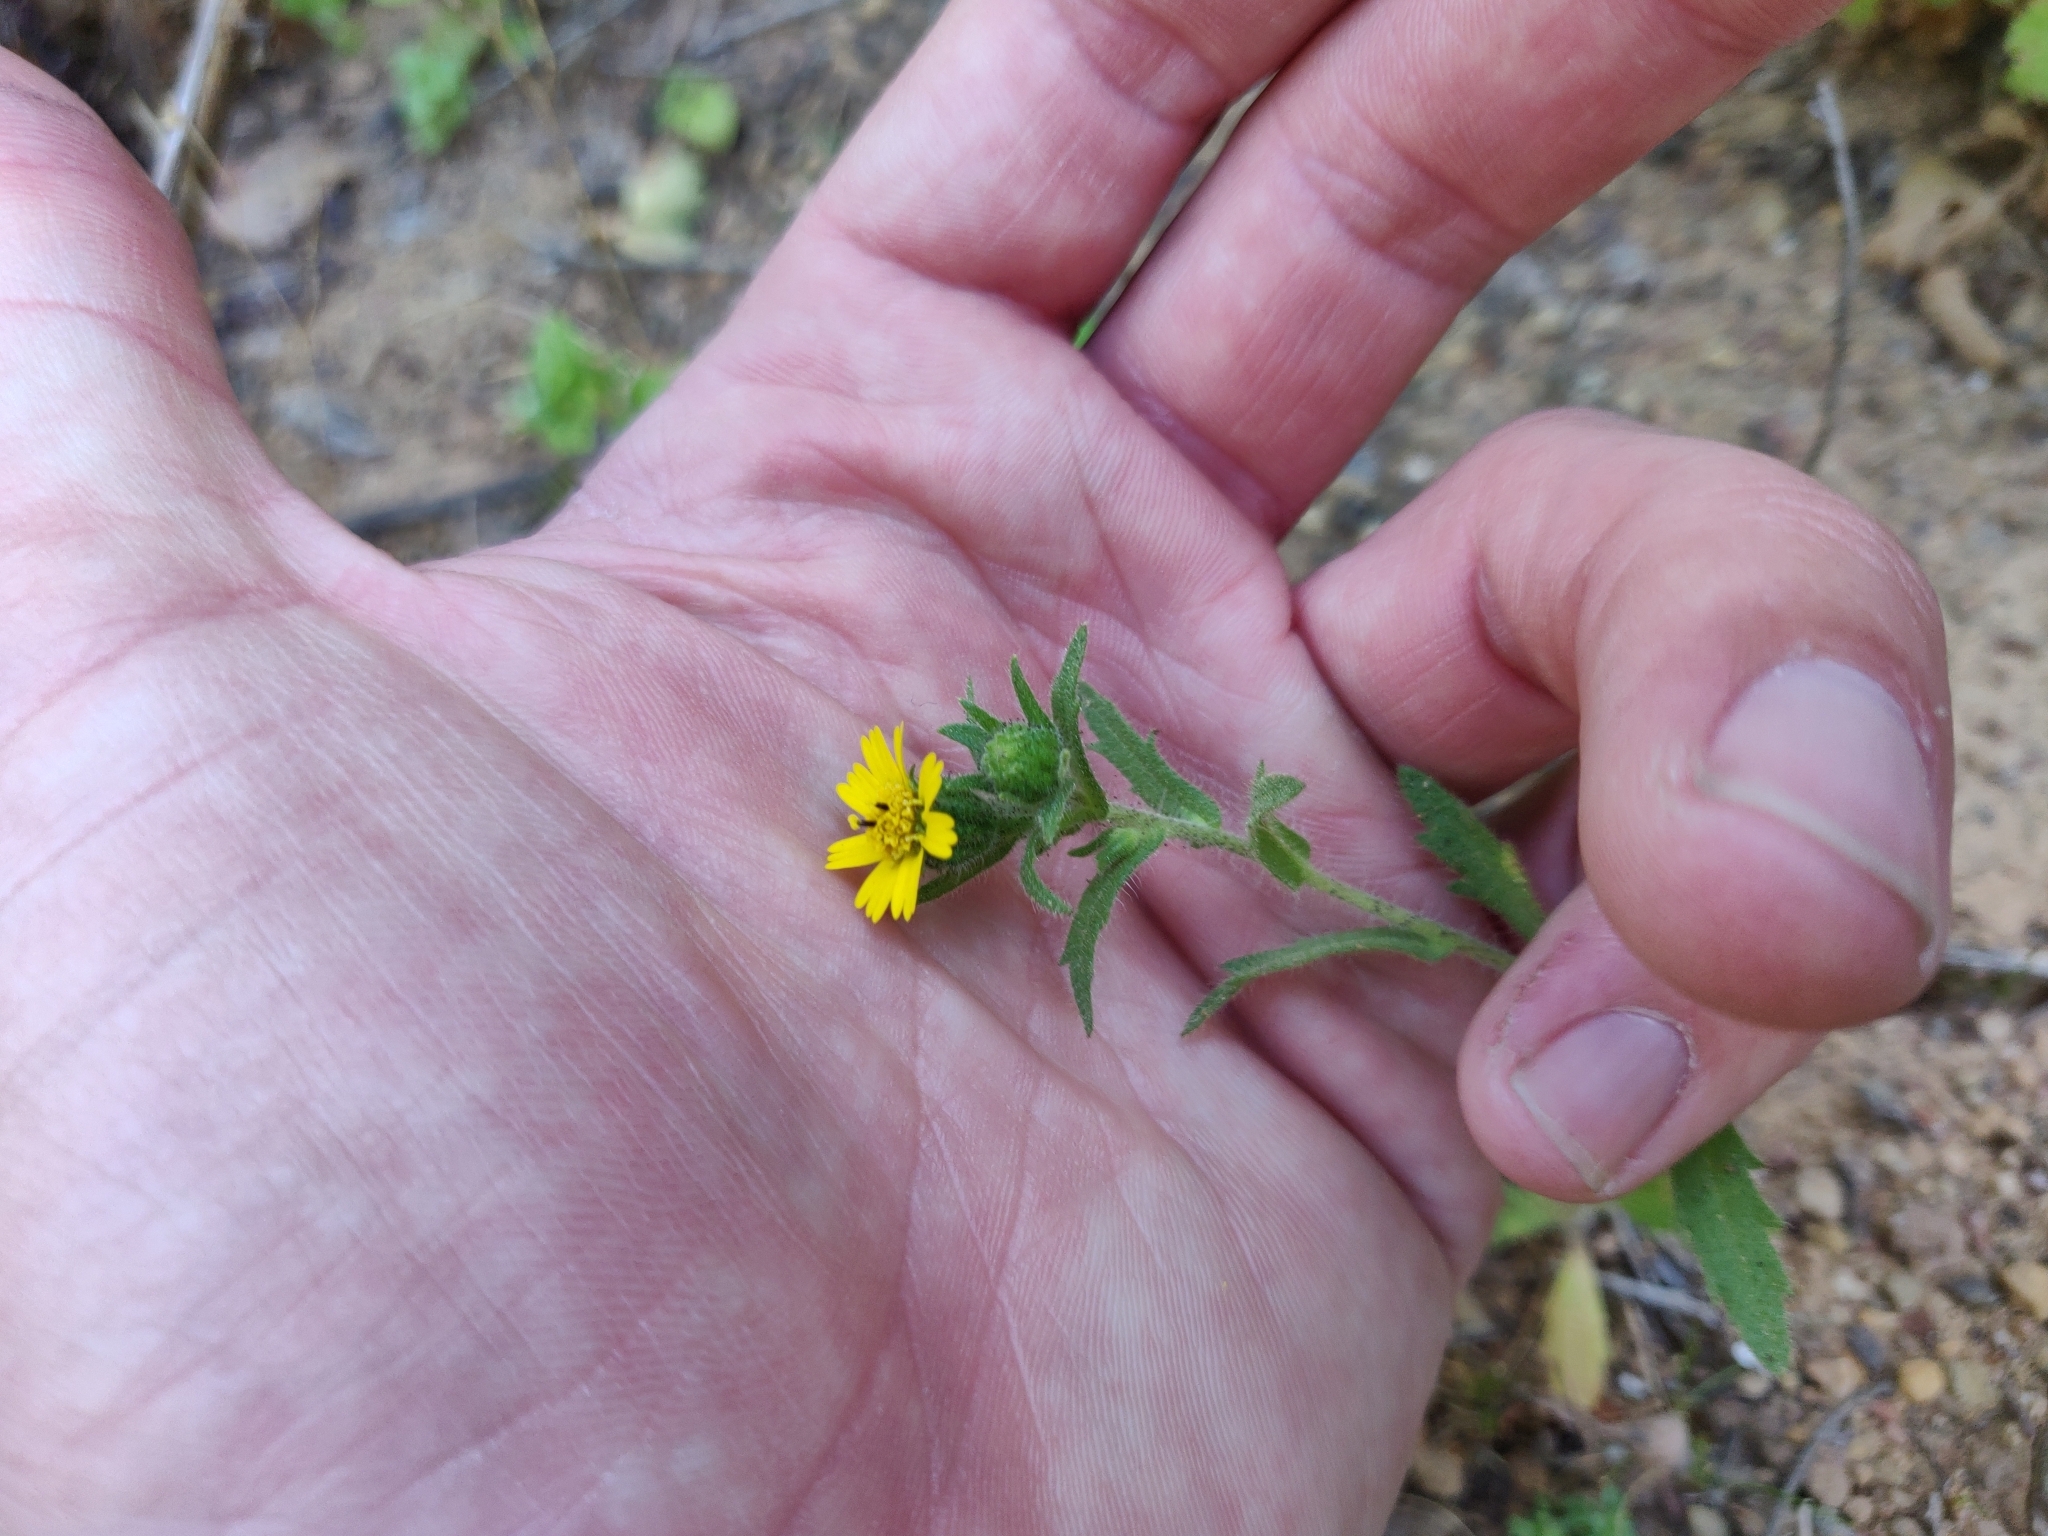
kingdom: Plantae
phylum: Tracheophyta
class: Magnoliopsida
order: Asterales
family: Asteraceae
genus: Layia
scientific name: Layia hieracioides
